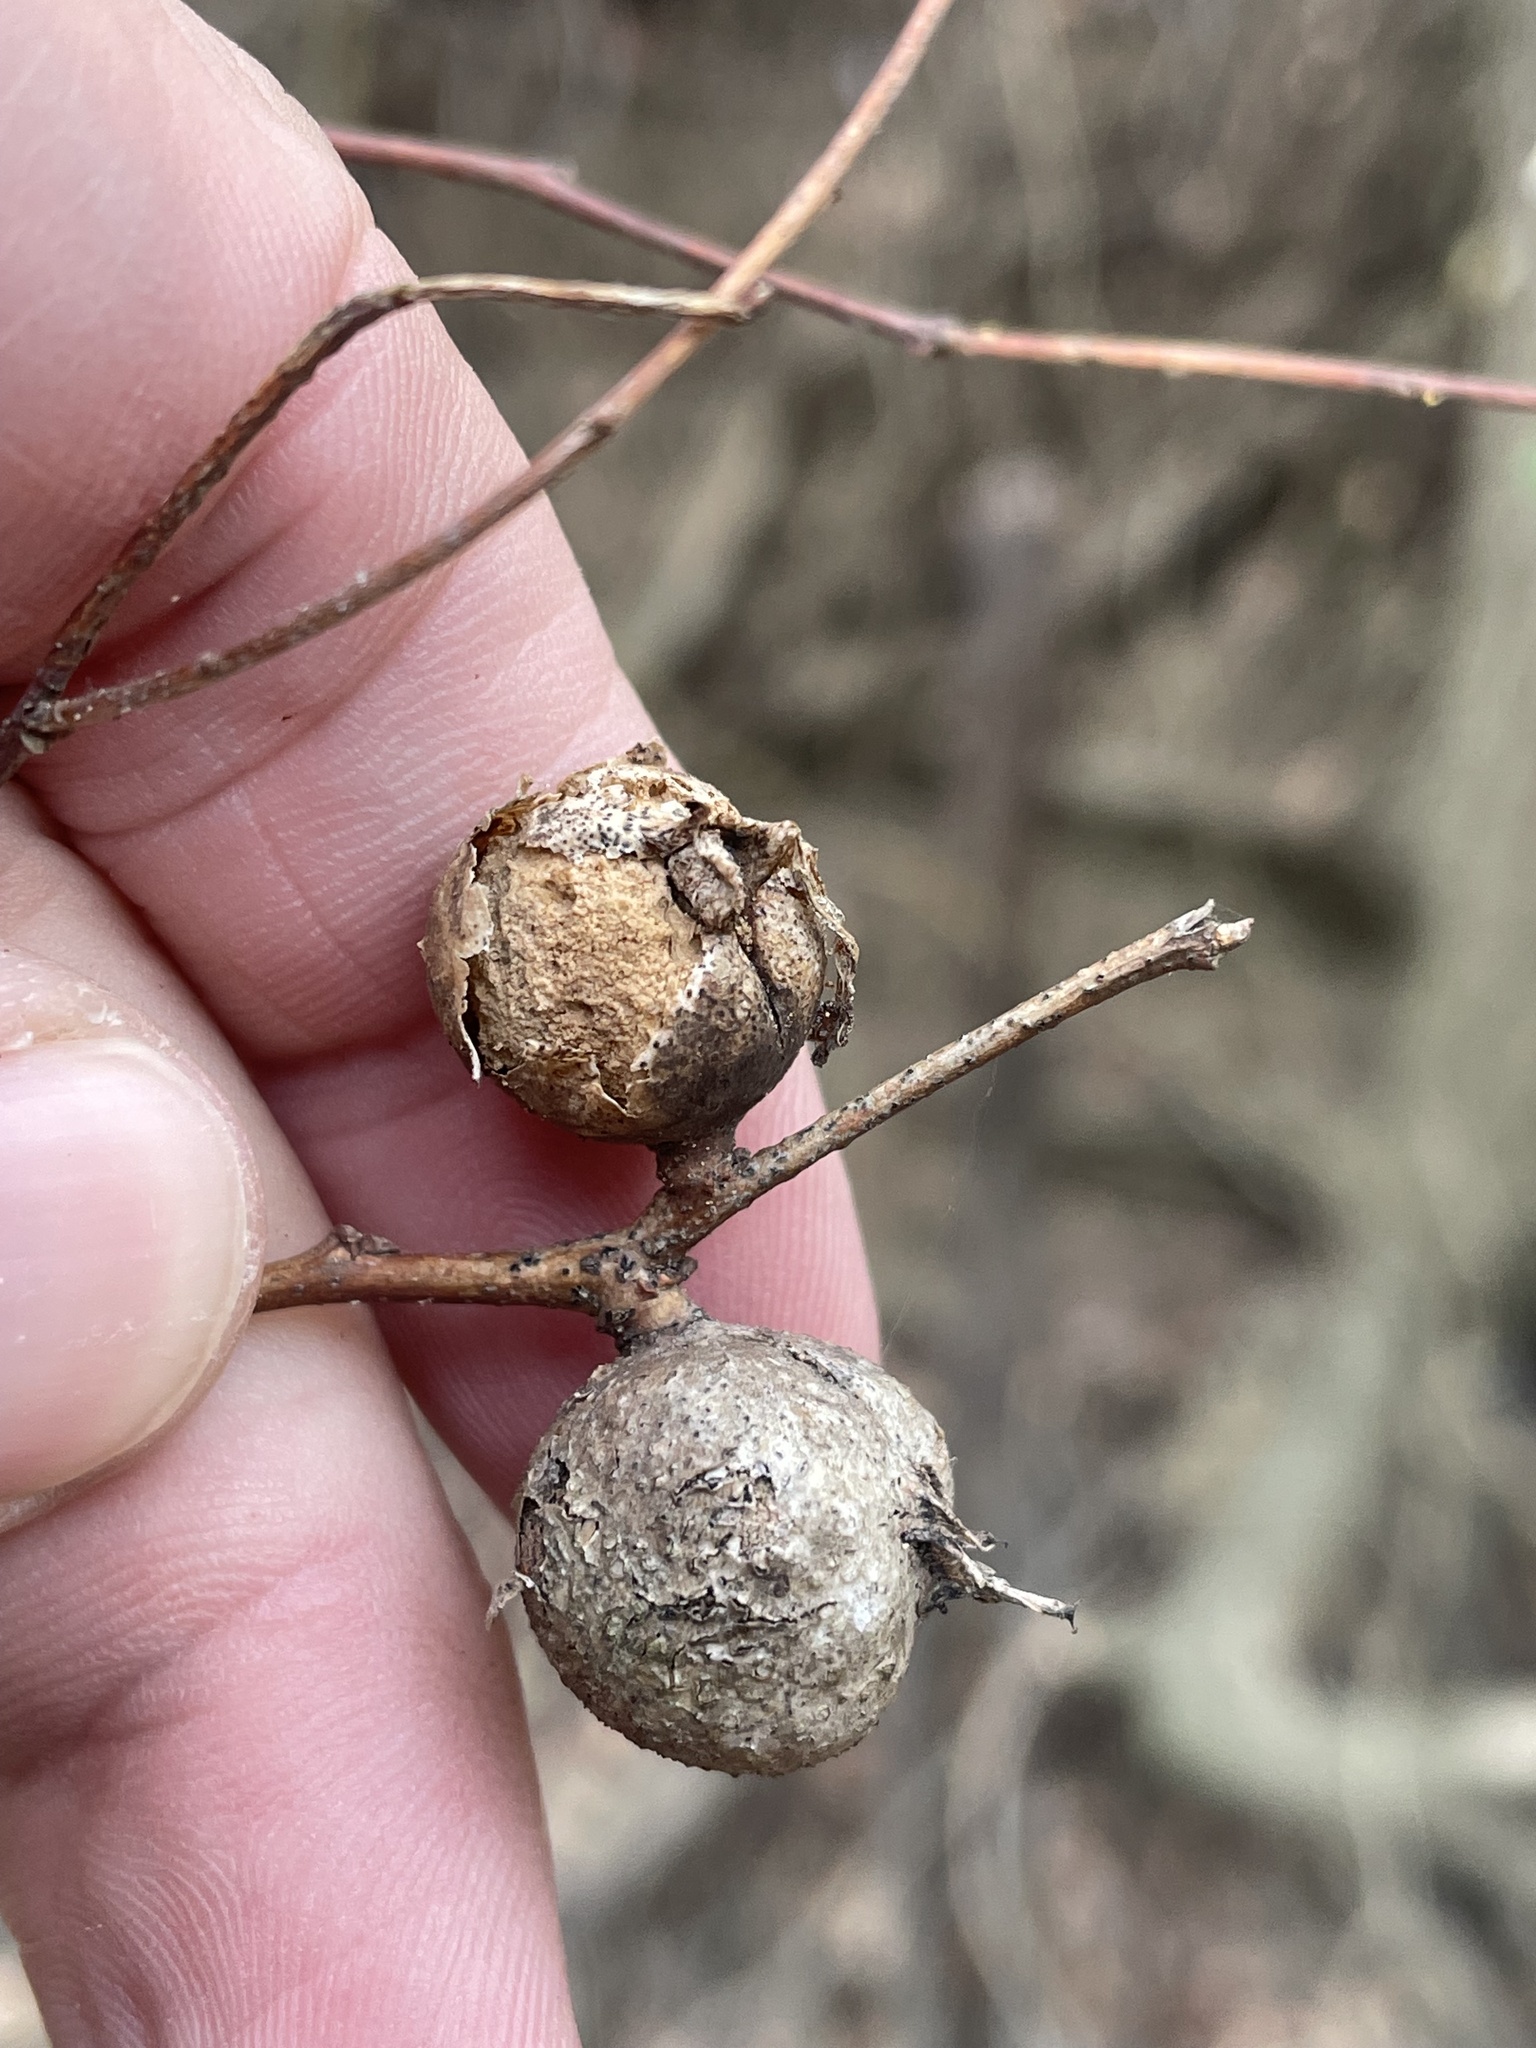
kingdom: Animalia
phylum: Arthropoda
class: Insecta
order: Hemiptera
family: Aphalaridae
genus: Pachypsylla
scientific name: Pachypsylla venusta
